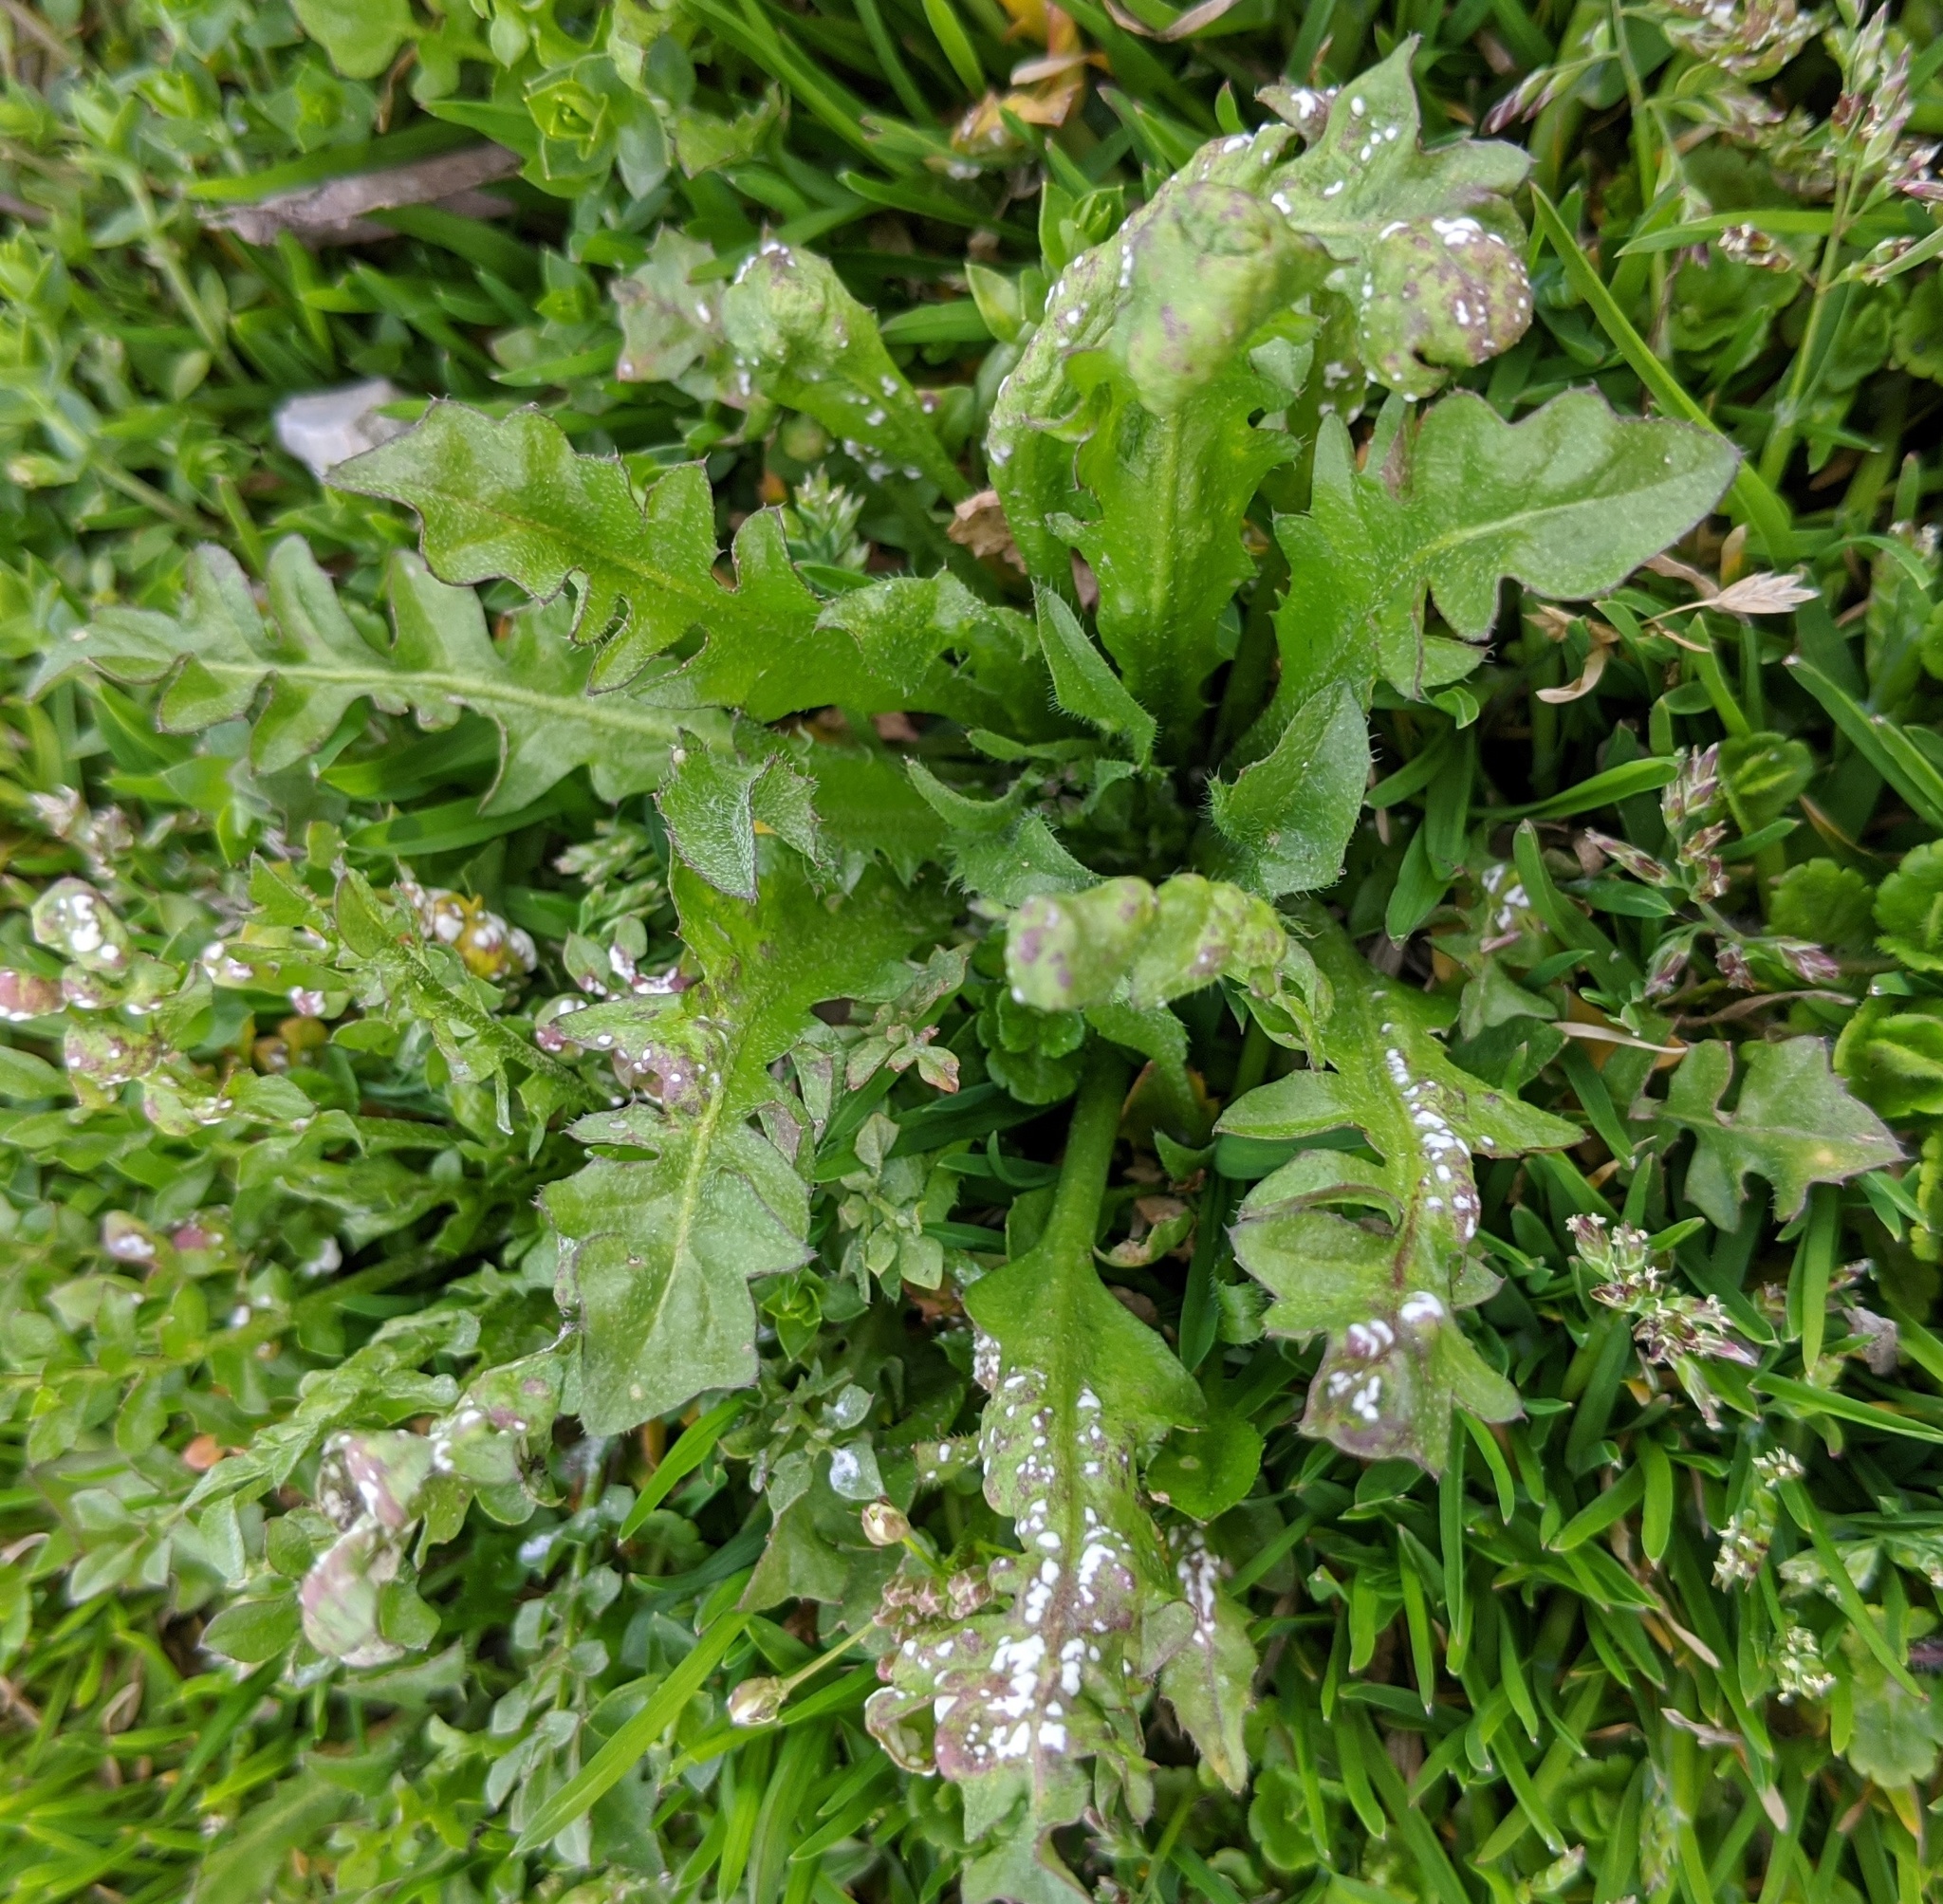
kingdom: Plantae
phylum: Tracheophyta
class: Magnoliopsida
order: Brassicales
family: Brassicaceae
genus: Capsella
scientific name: Capsella bursa-pastoris
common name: Shepherd's purse
